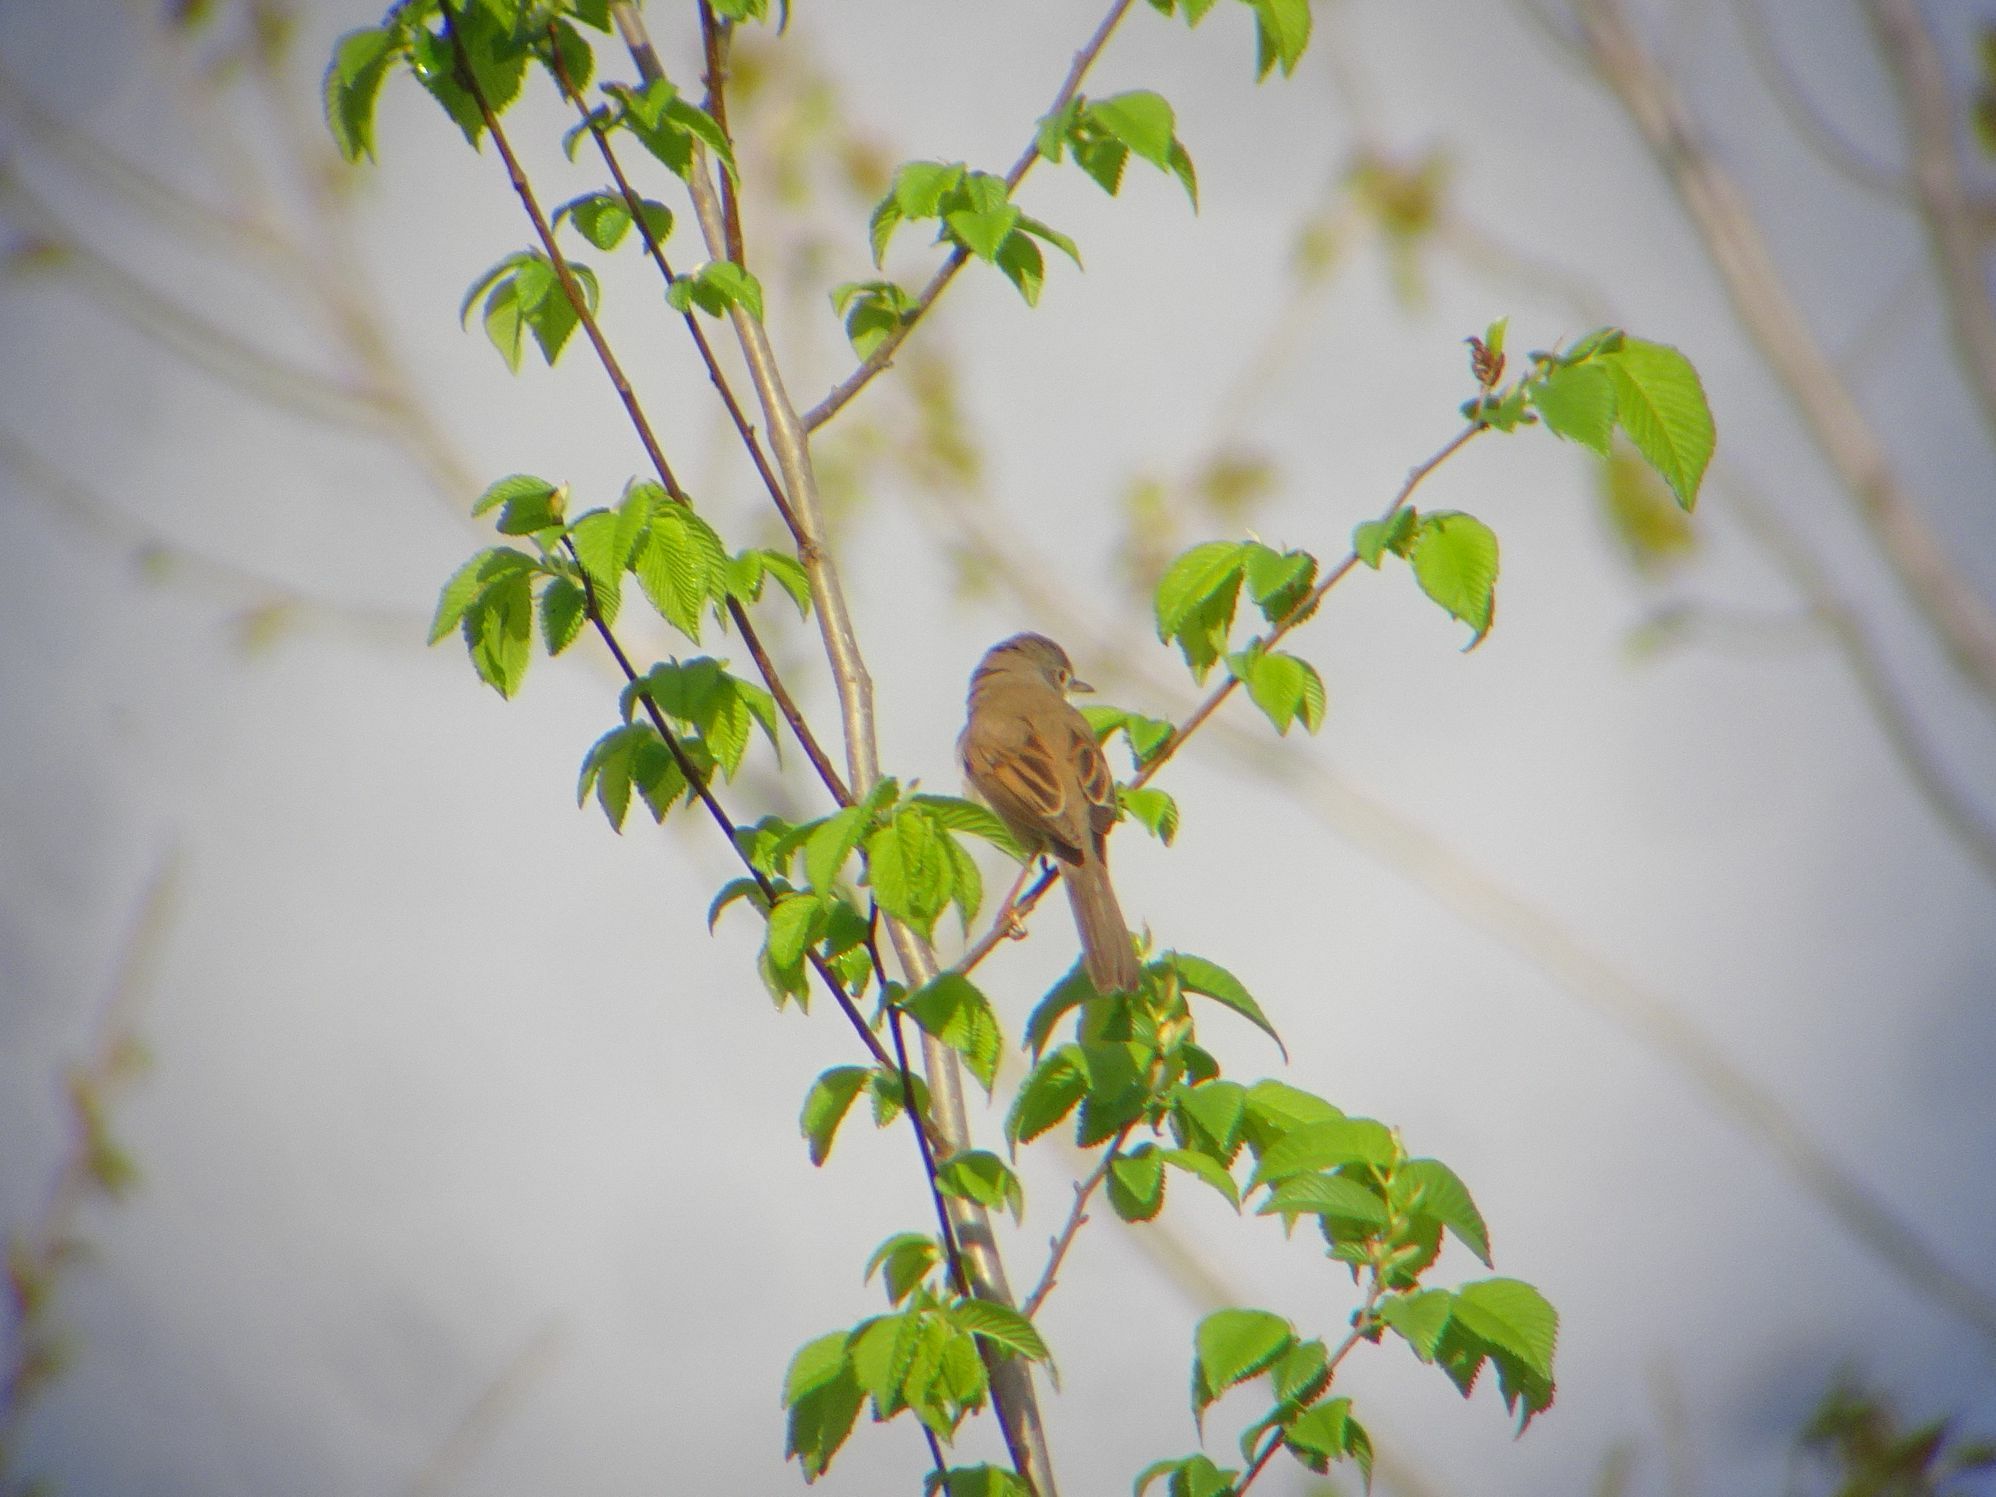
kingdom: Animalia
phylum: Chordata
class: Aves
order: Passeriformes
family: Sylviidae
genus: Sylvia
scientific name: Sylvia communis
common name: Common whitethroat
